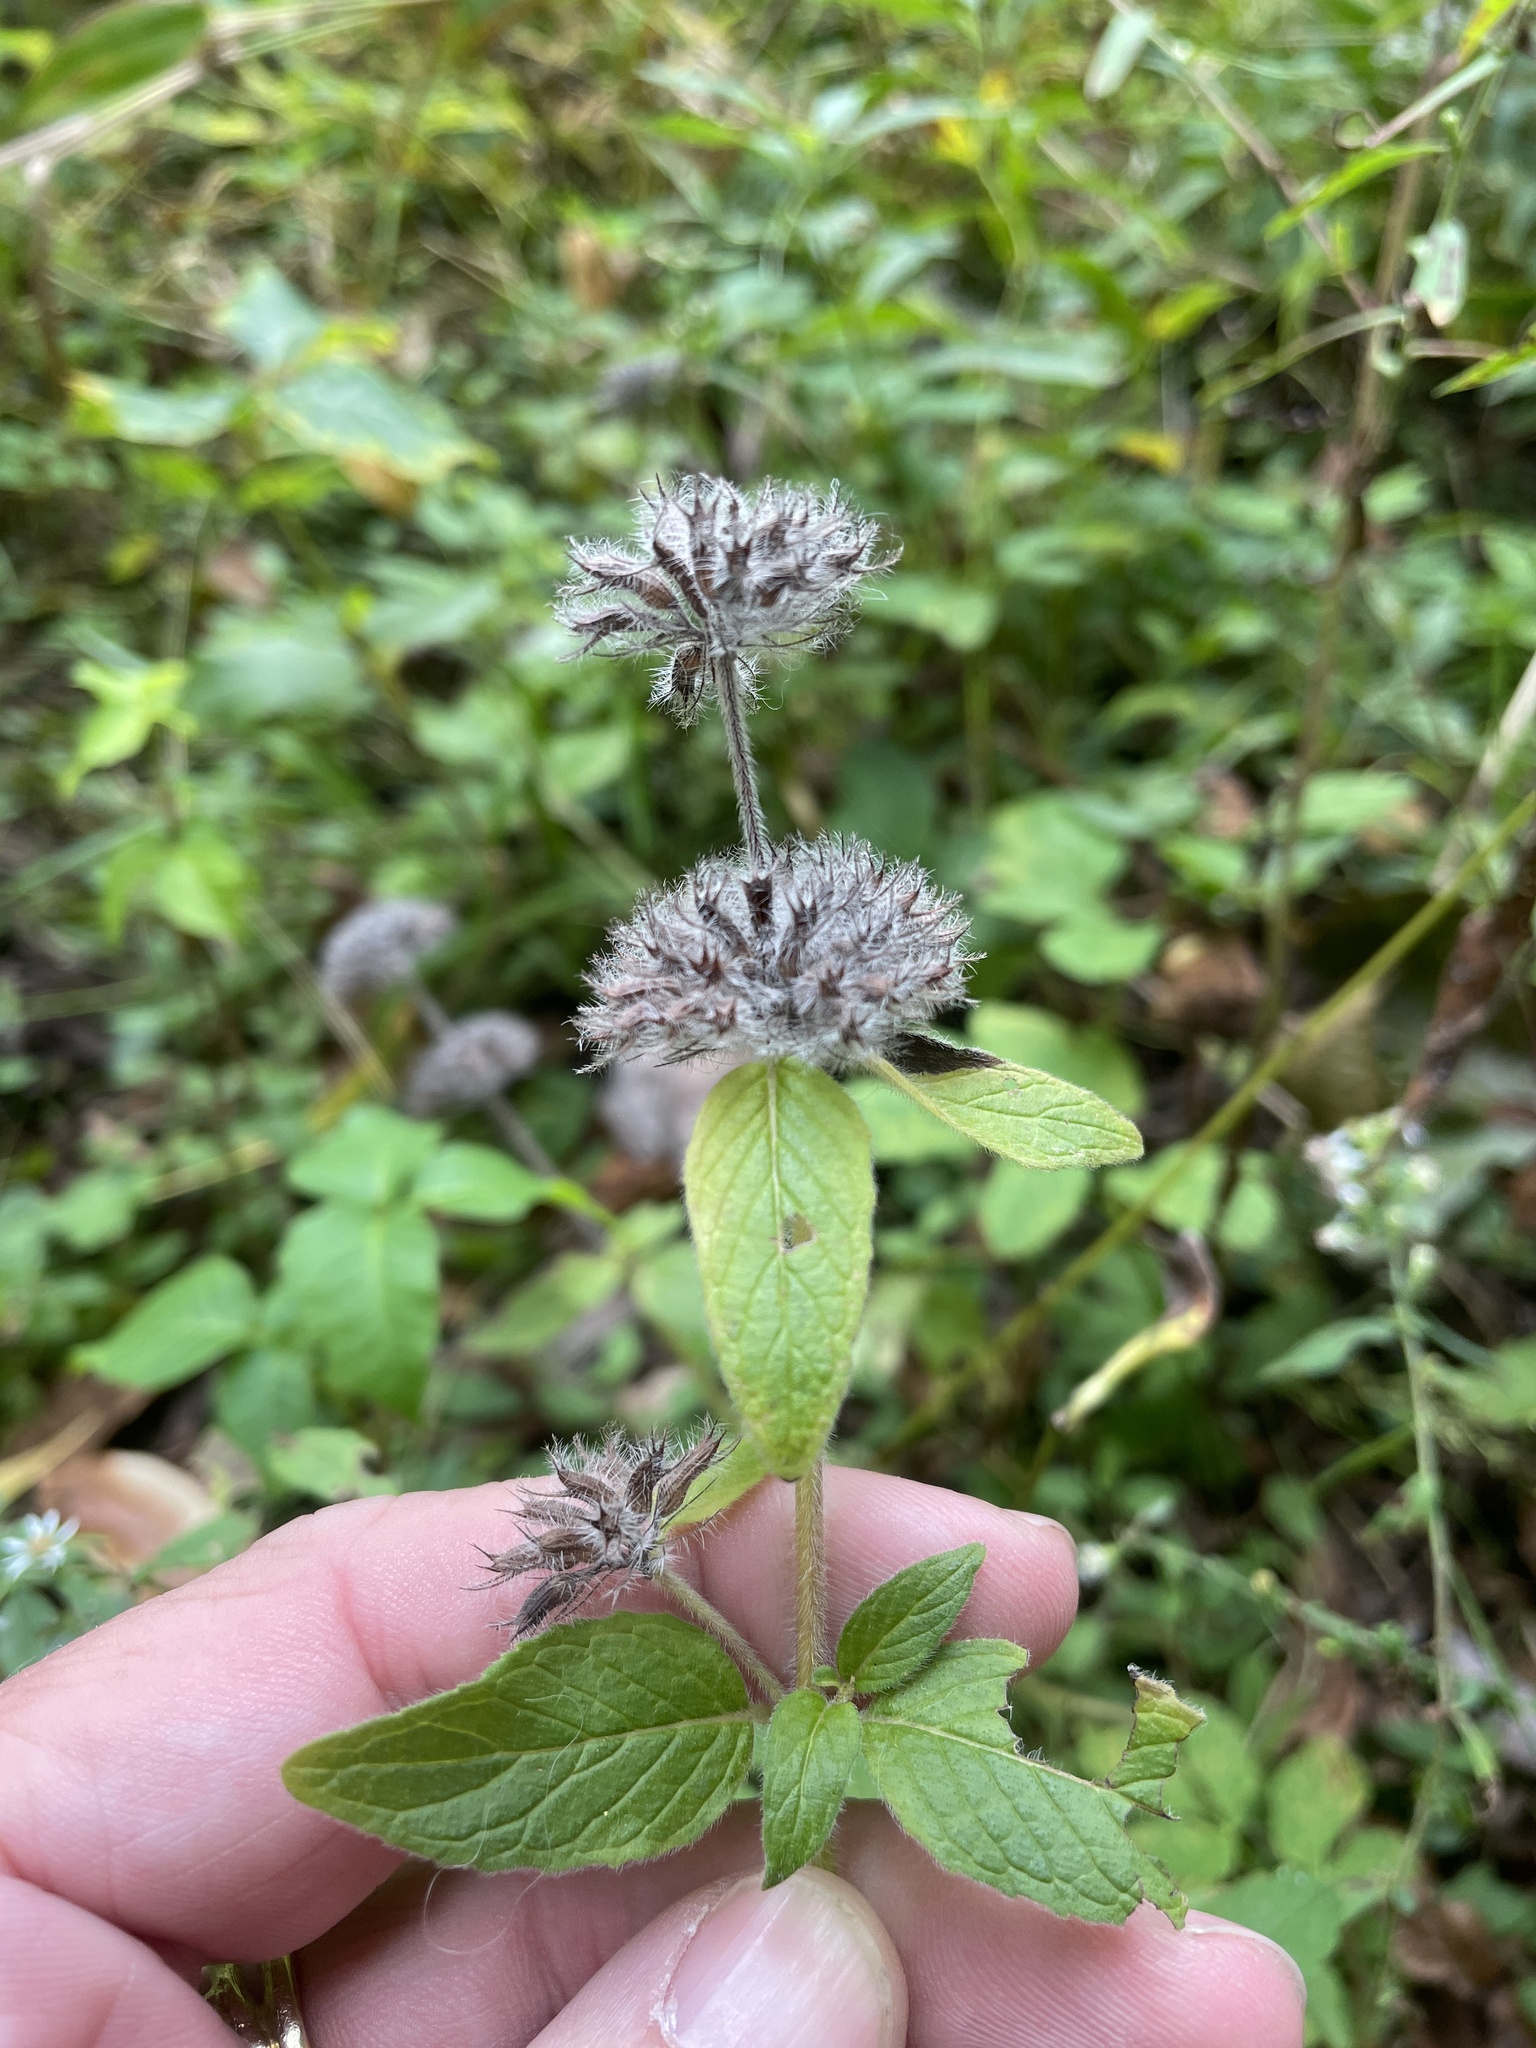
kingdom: Plantae
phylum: Tracheophyta
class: Magnoliopsida
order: Lamiales
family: Lamiaceae
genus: Clinopodium
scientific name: Clinopodium vulgare
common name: Wild basil
